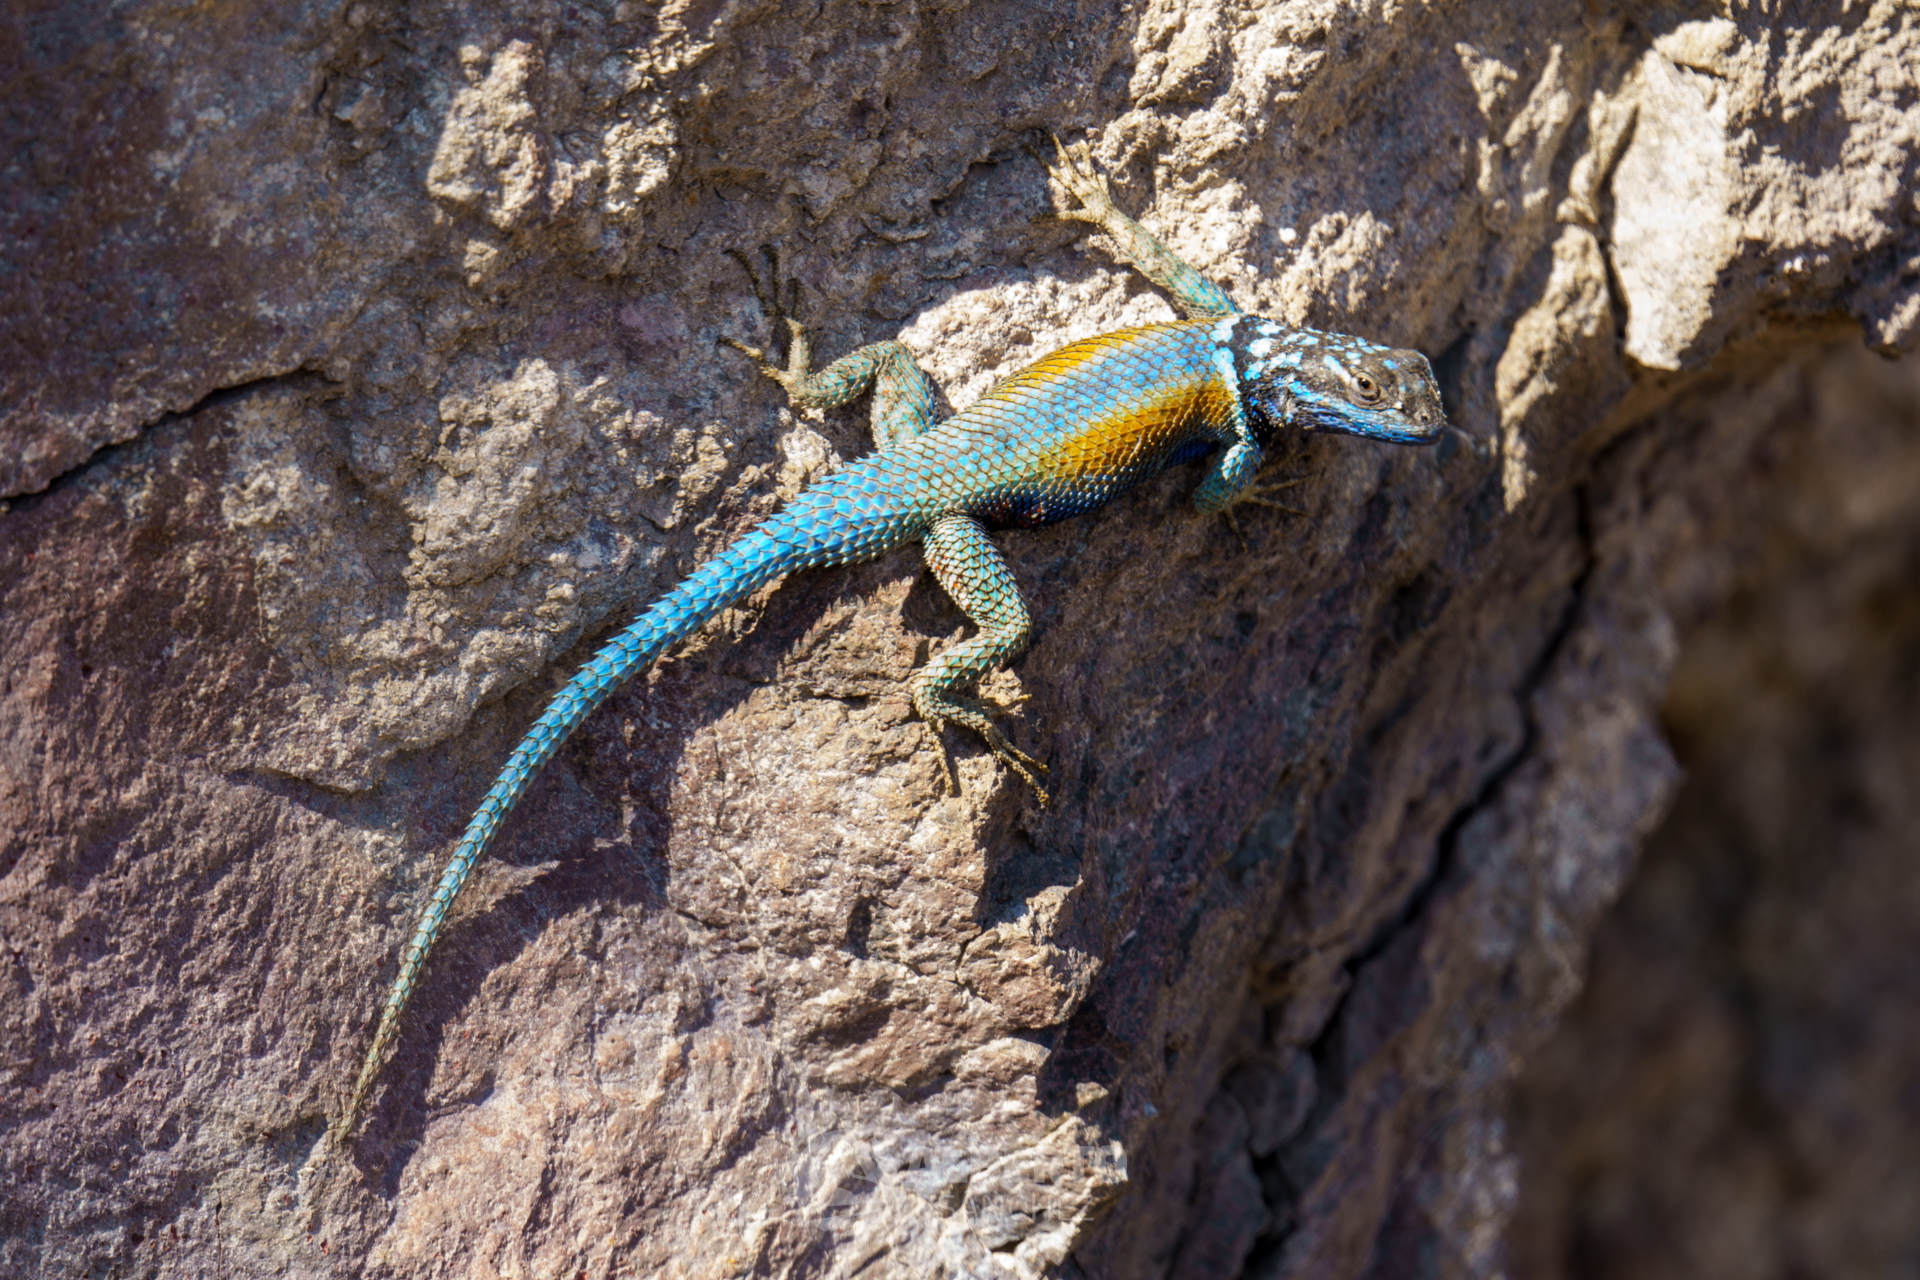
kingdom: Animalia
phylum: Chordata
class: Squamata
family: Phrynosomatidae
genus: Sceloporus
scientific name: Sceloporus minor
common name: Minor lizard
